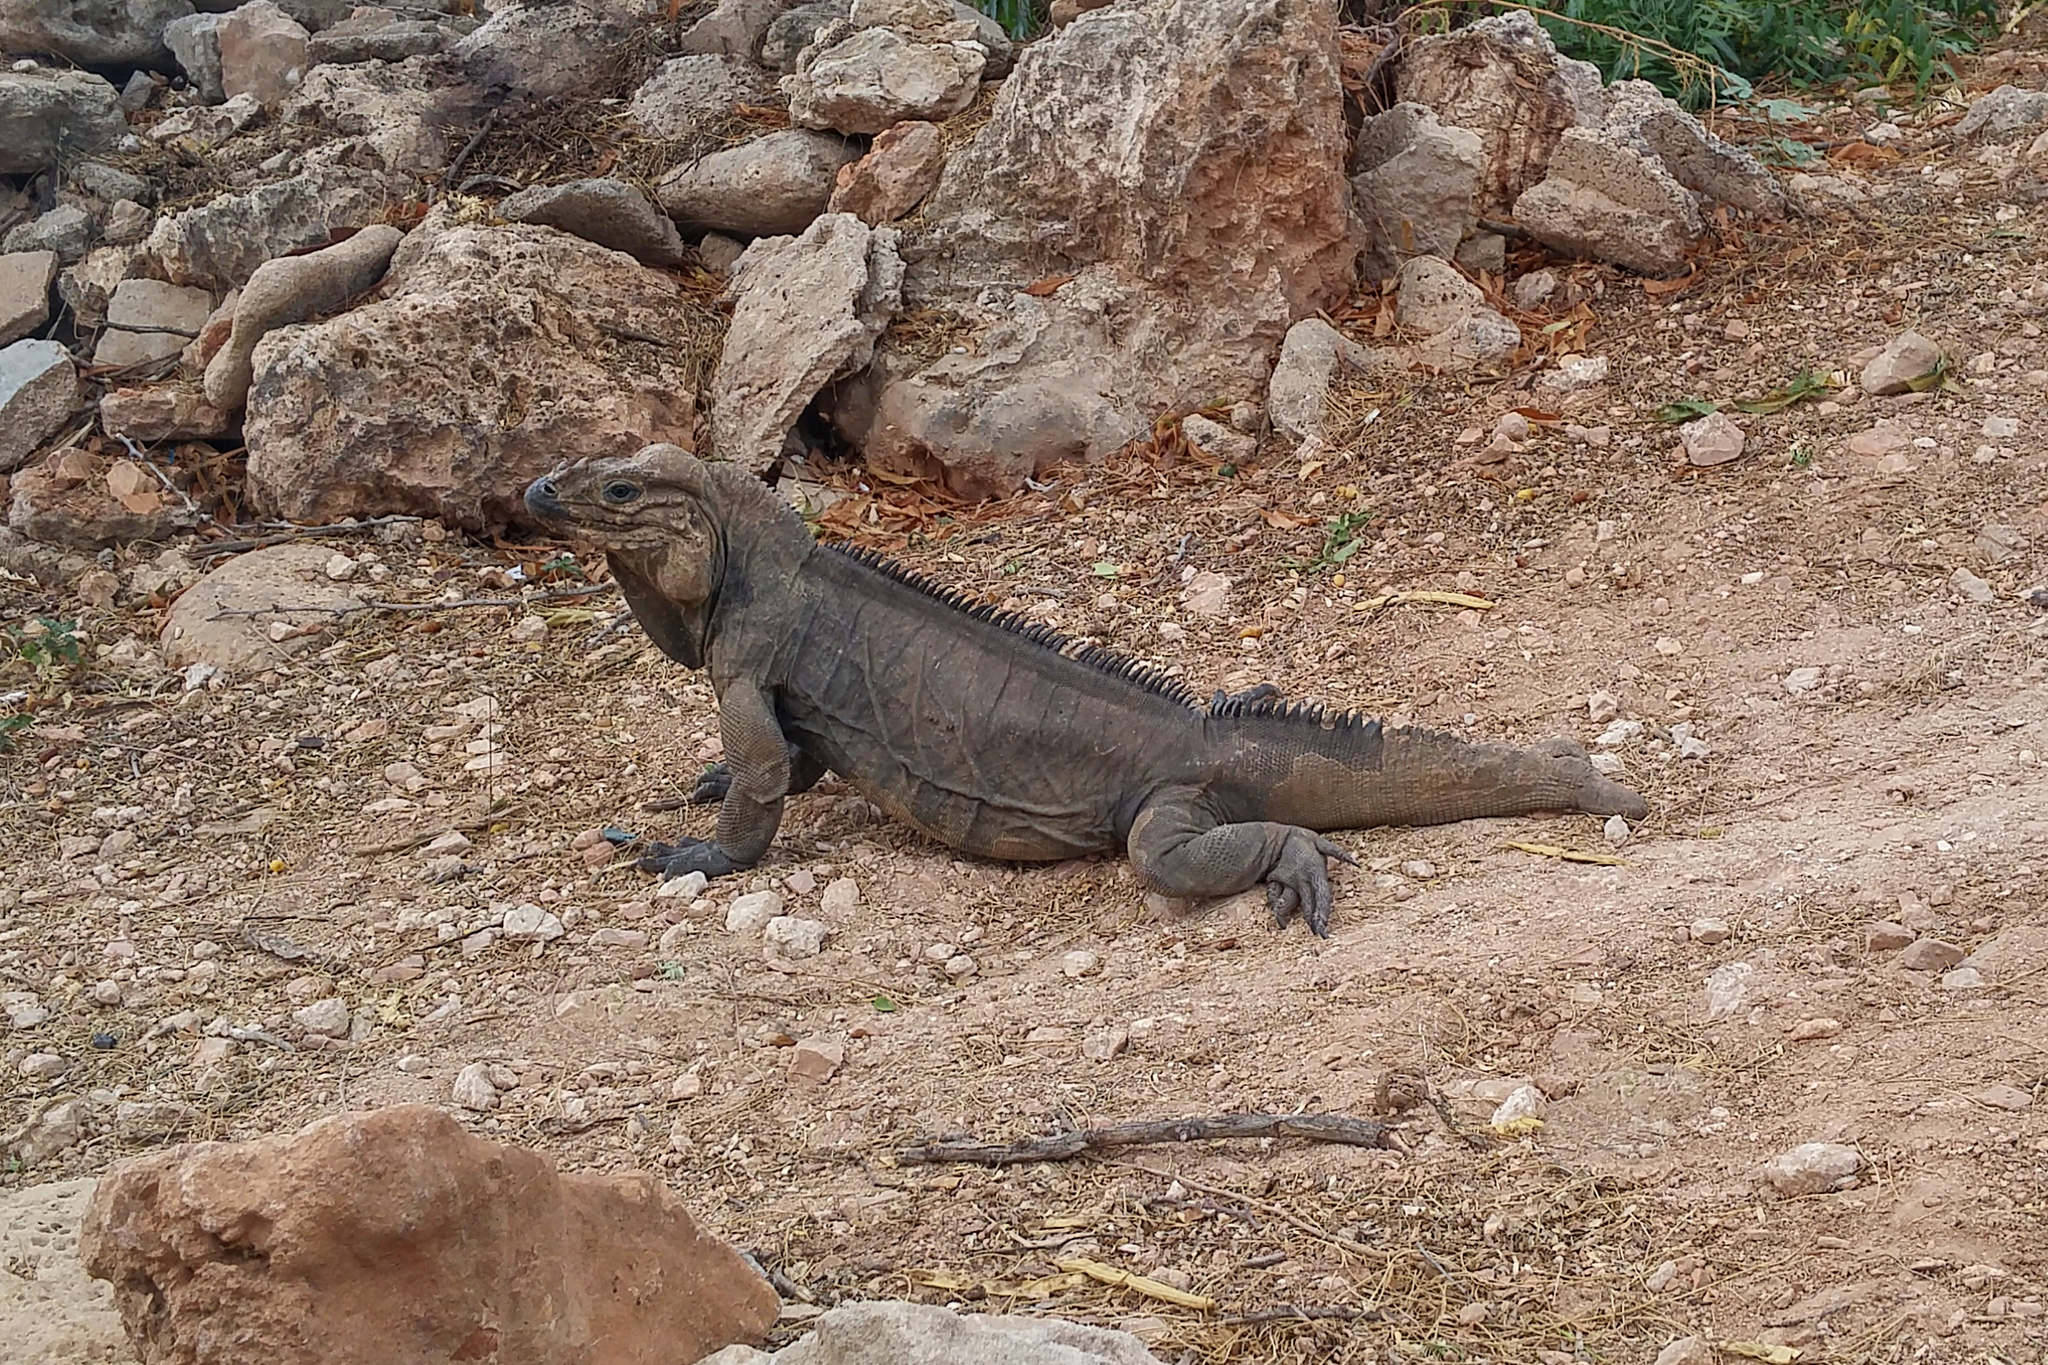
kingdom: Animalia
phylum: Chordata
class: Squamata
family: Iguanidae
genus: Cyclura
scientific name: Cyclura cornuta
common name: Hispaniolan rhinoceros iguana
